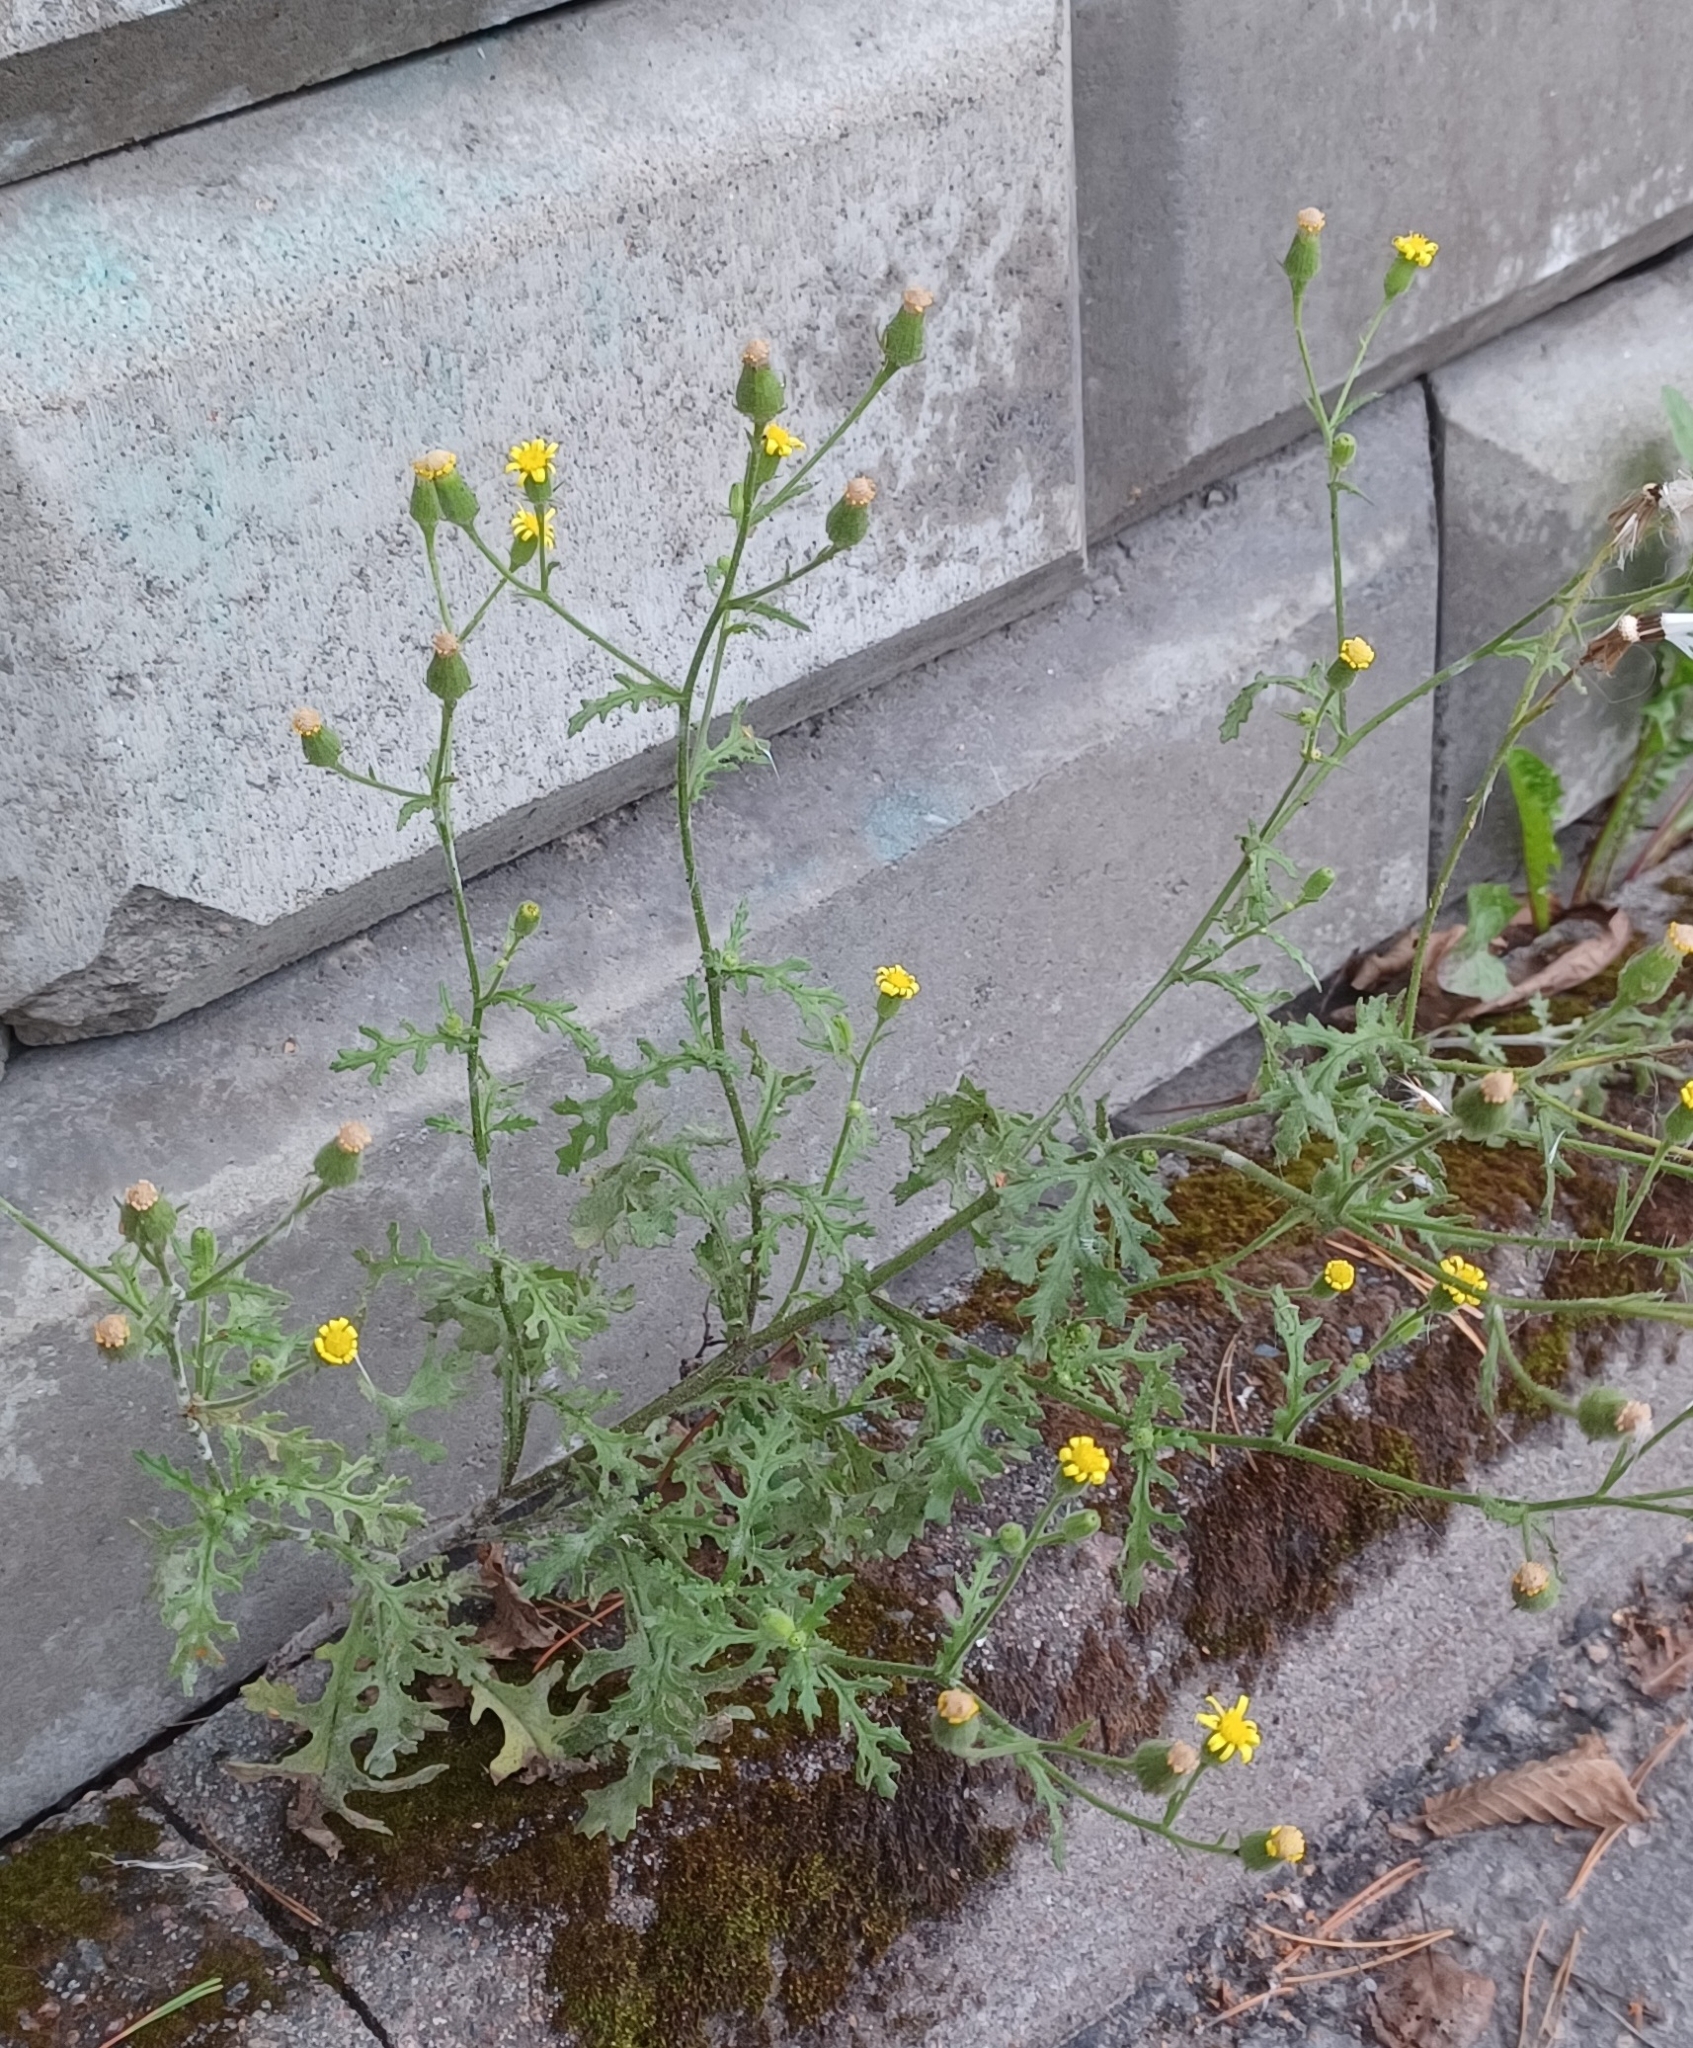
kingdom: Plantae
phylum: Tracheophyta
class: Magnoliopsida
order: Asterales
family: Asteraceae
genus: Senecio
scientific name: Senecio viscosus
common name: Sticky groundsel
